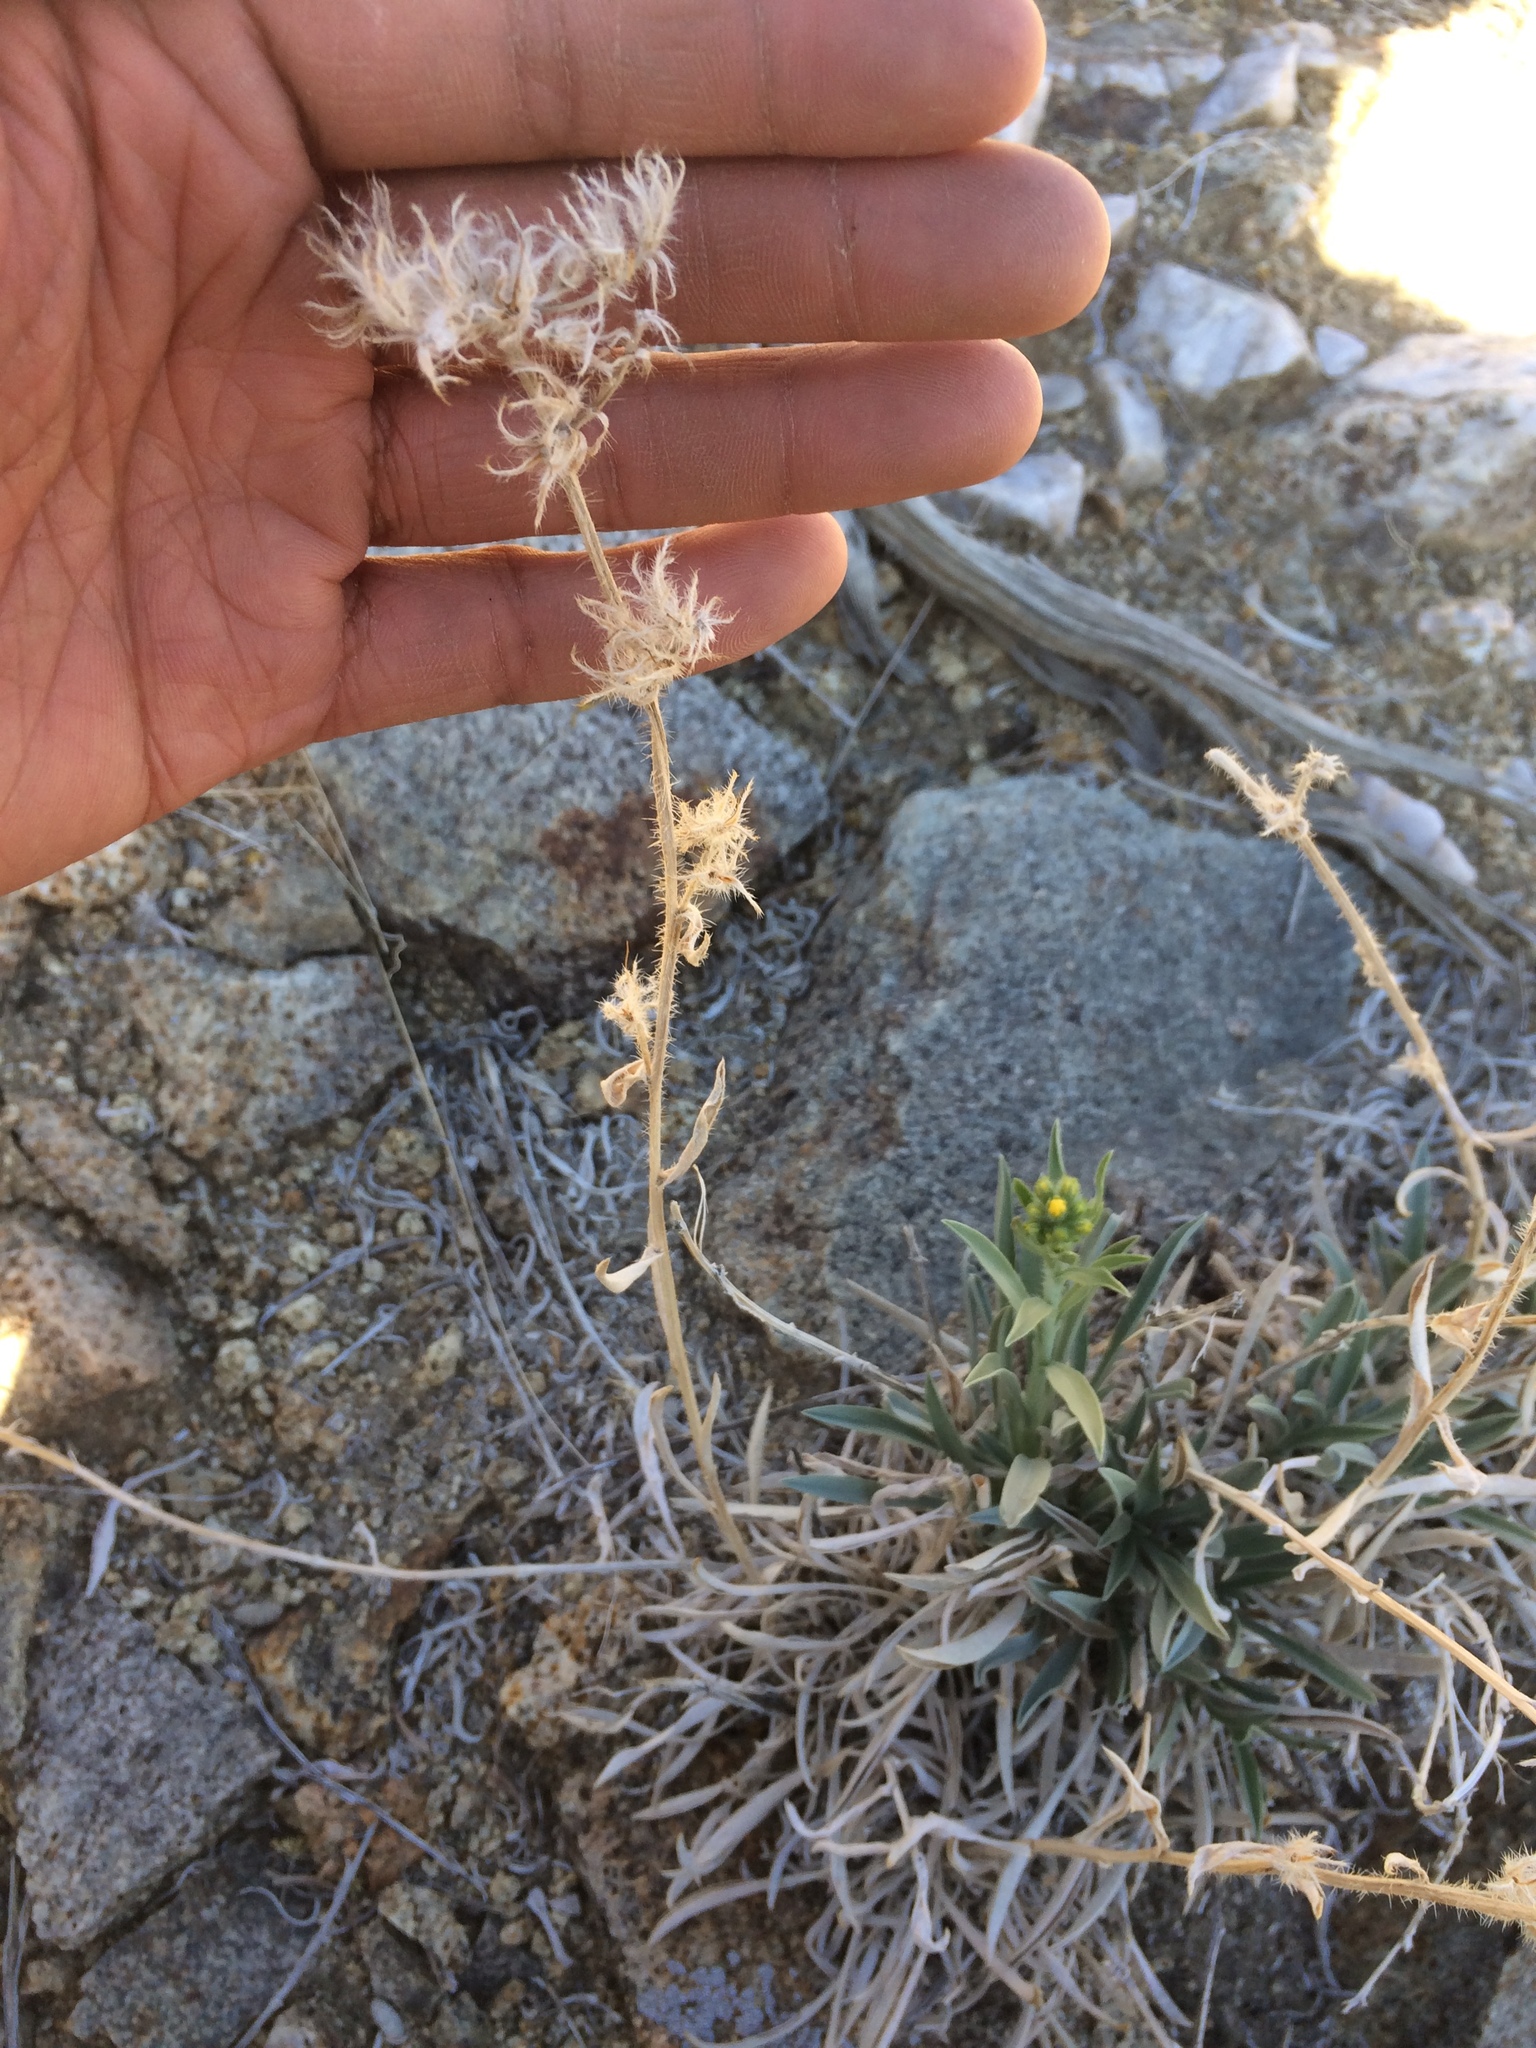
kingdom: Plantae
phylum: Tracheophyta
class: Magnoliopsida
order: Boraginales
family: Boraginaceae
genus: Oreocarya
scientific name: Oreocarya confertiflora
